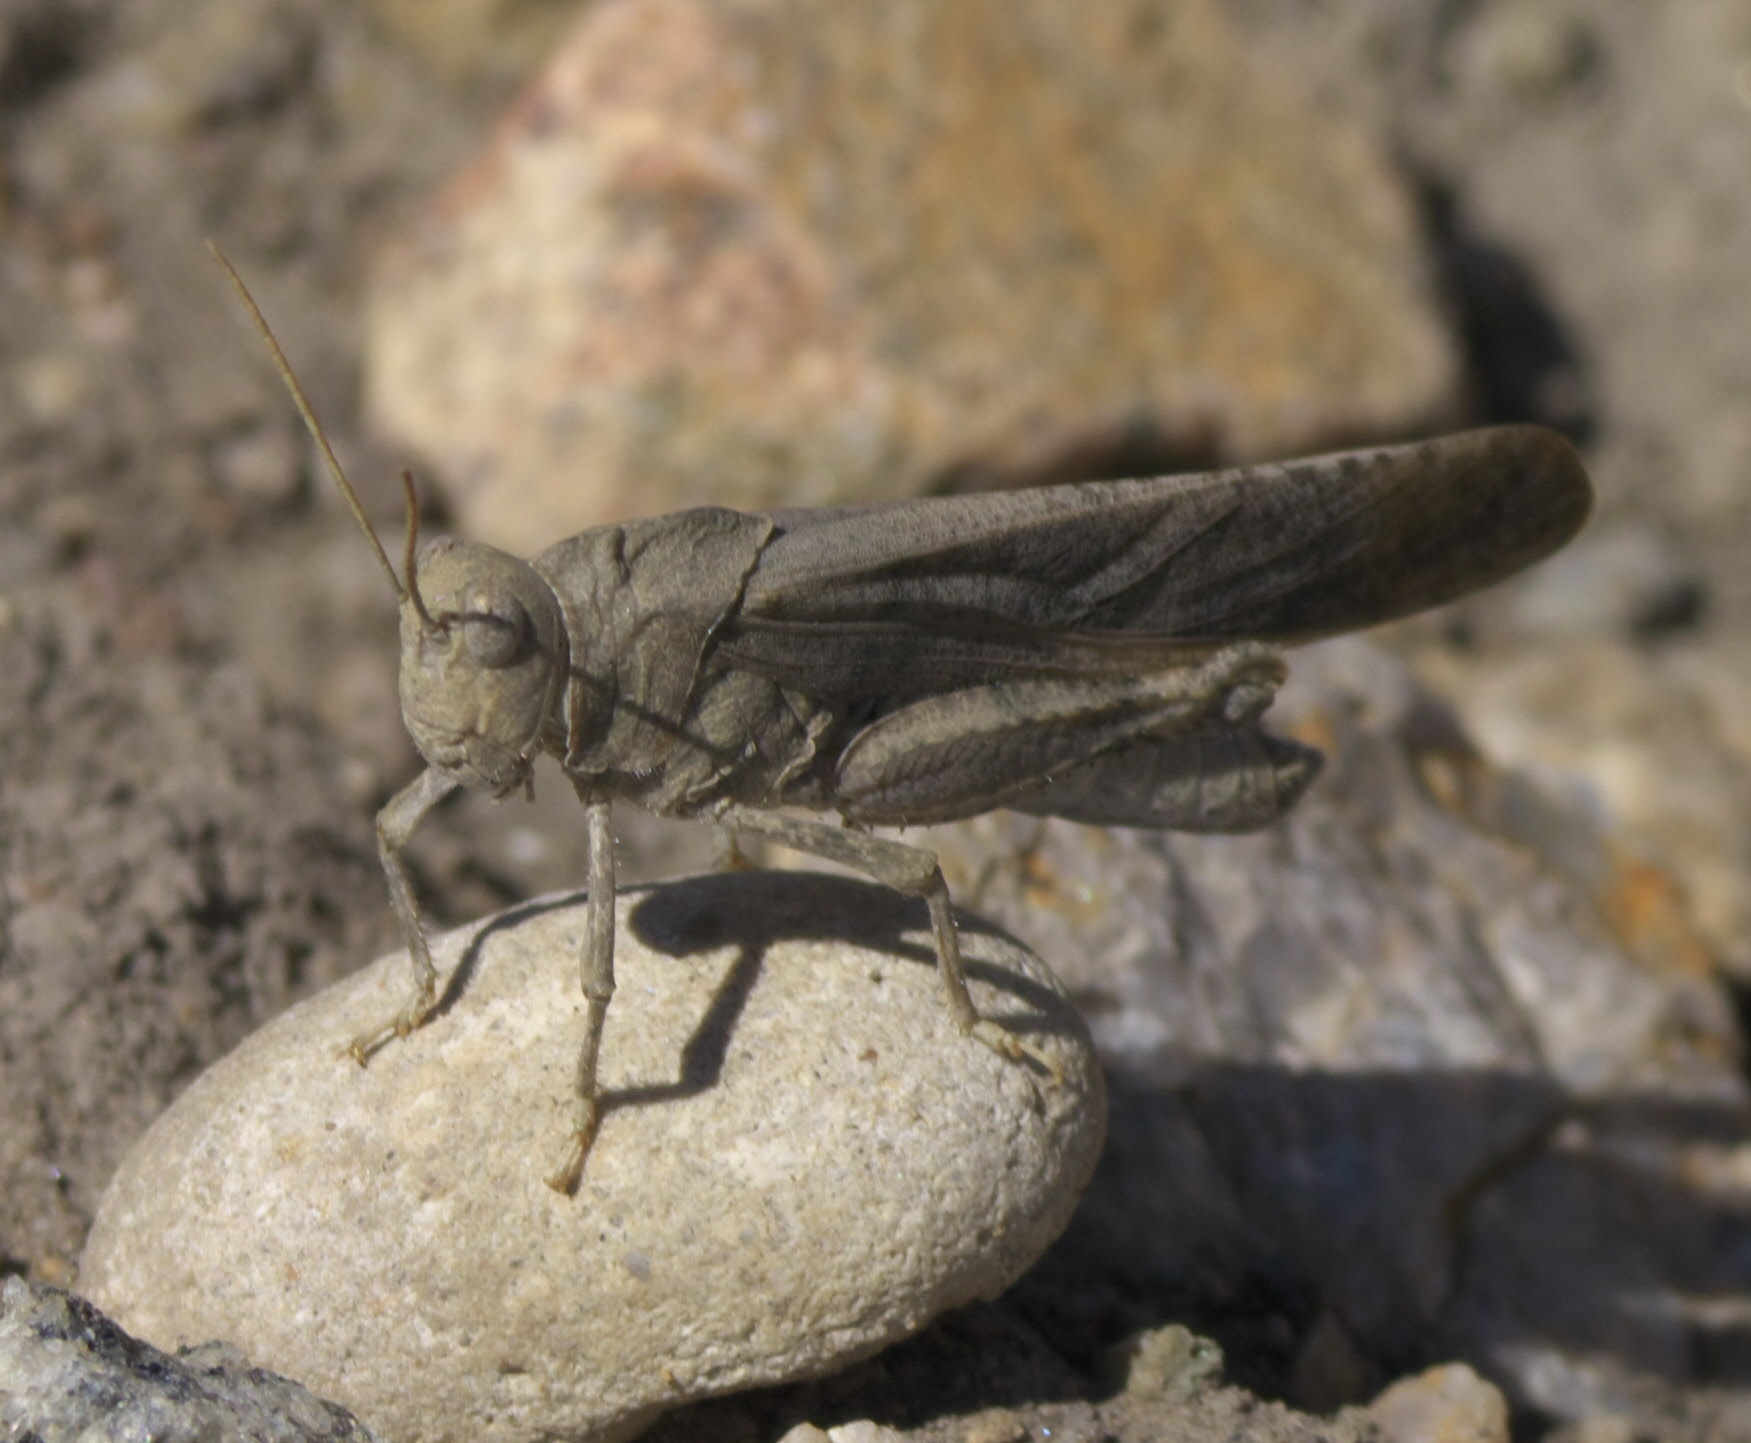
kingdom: Animalia
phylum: Arthropoda
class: Insecta
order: Orthoptera
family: Acrididae
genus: Dissosteira
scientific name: Dissosteira carolina
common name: Carolina grasshopper
